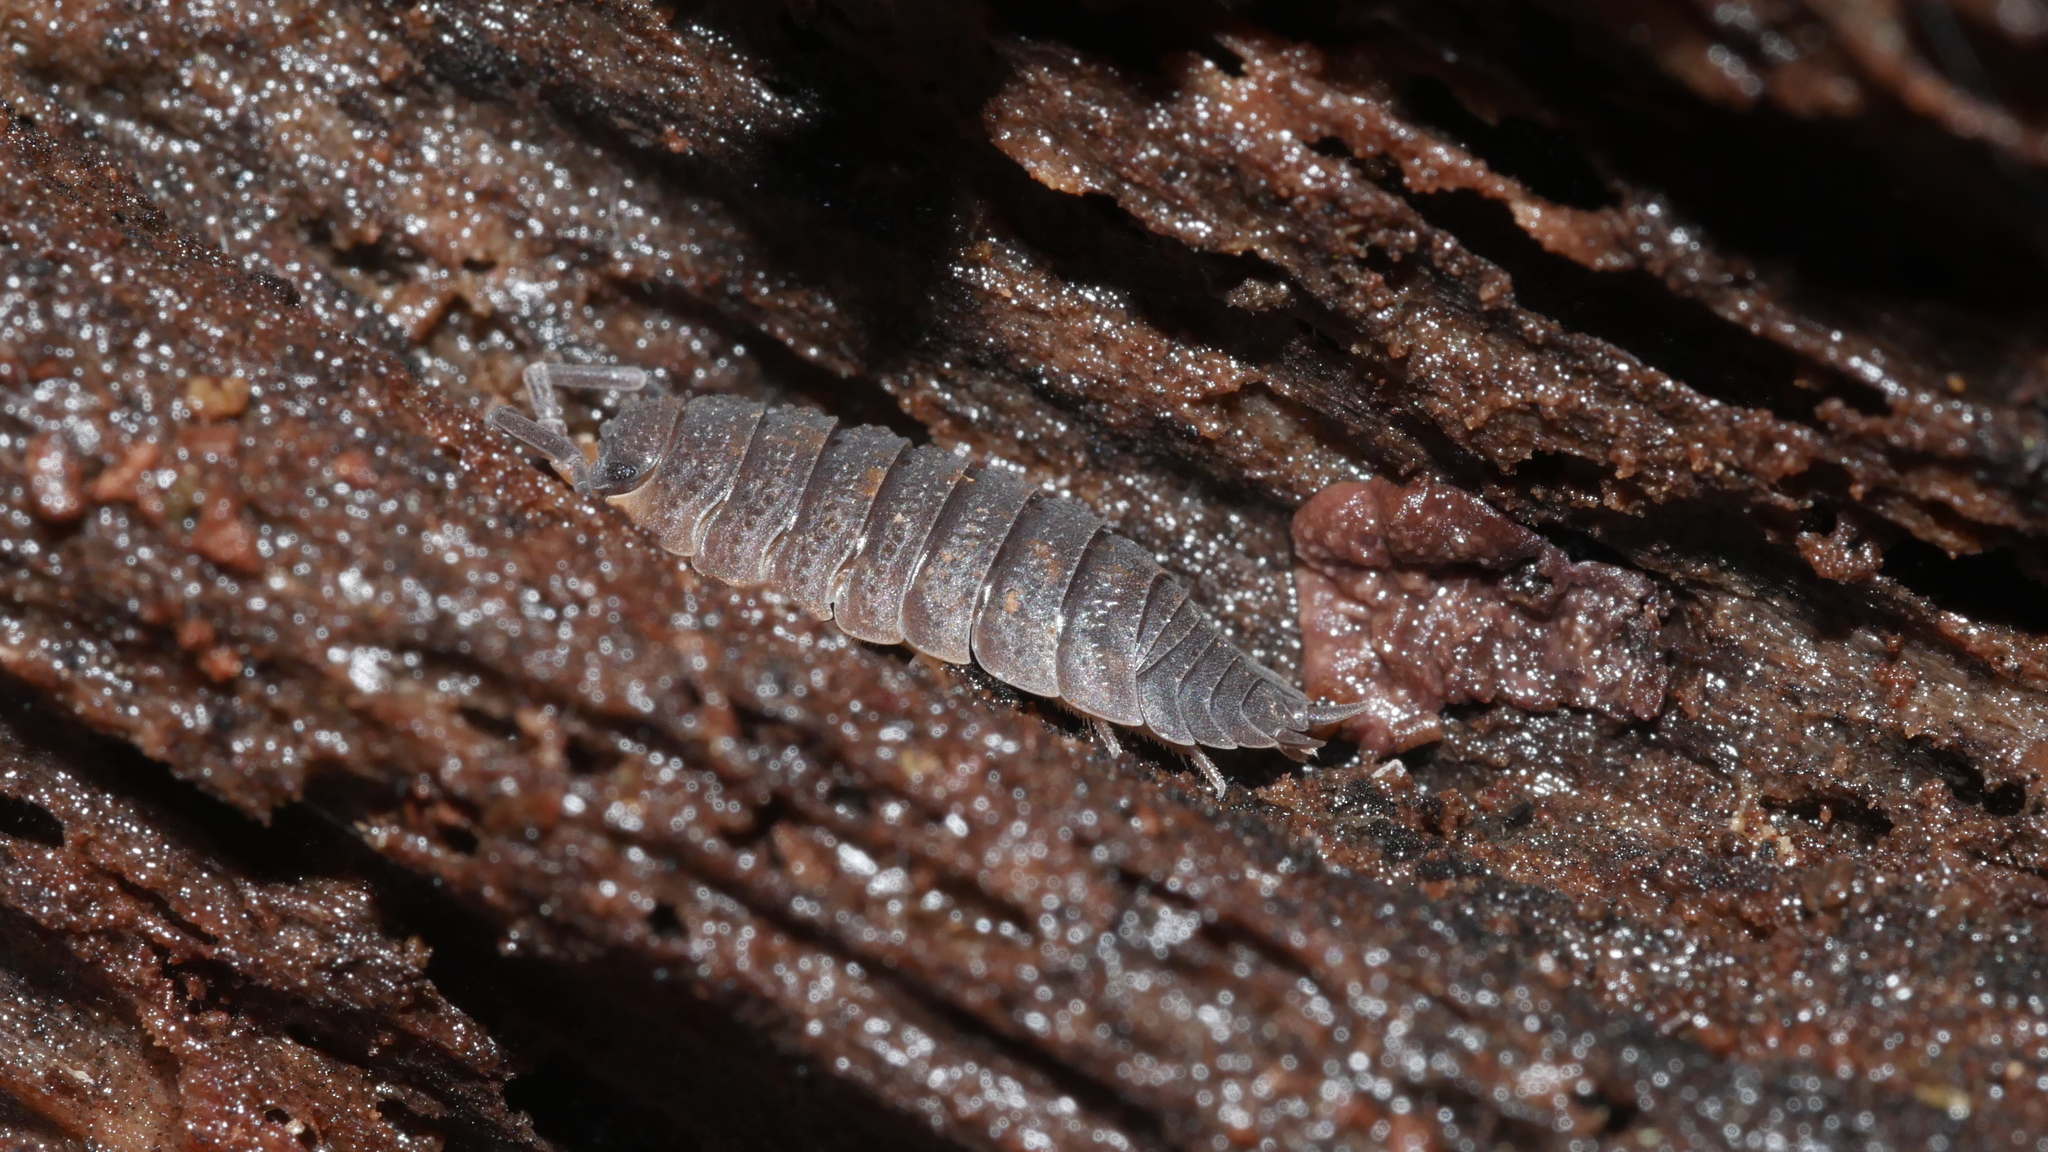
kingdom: Animalia
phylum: Arthropoda
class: Malacostraca
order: Isopoda
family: Porcellionidae
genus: Porcellio
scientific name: Porcellio scaber
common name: Common rough woodlouse
